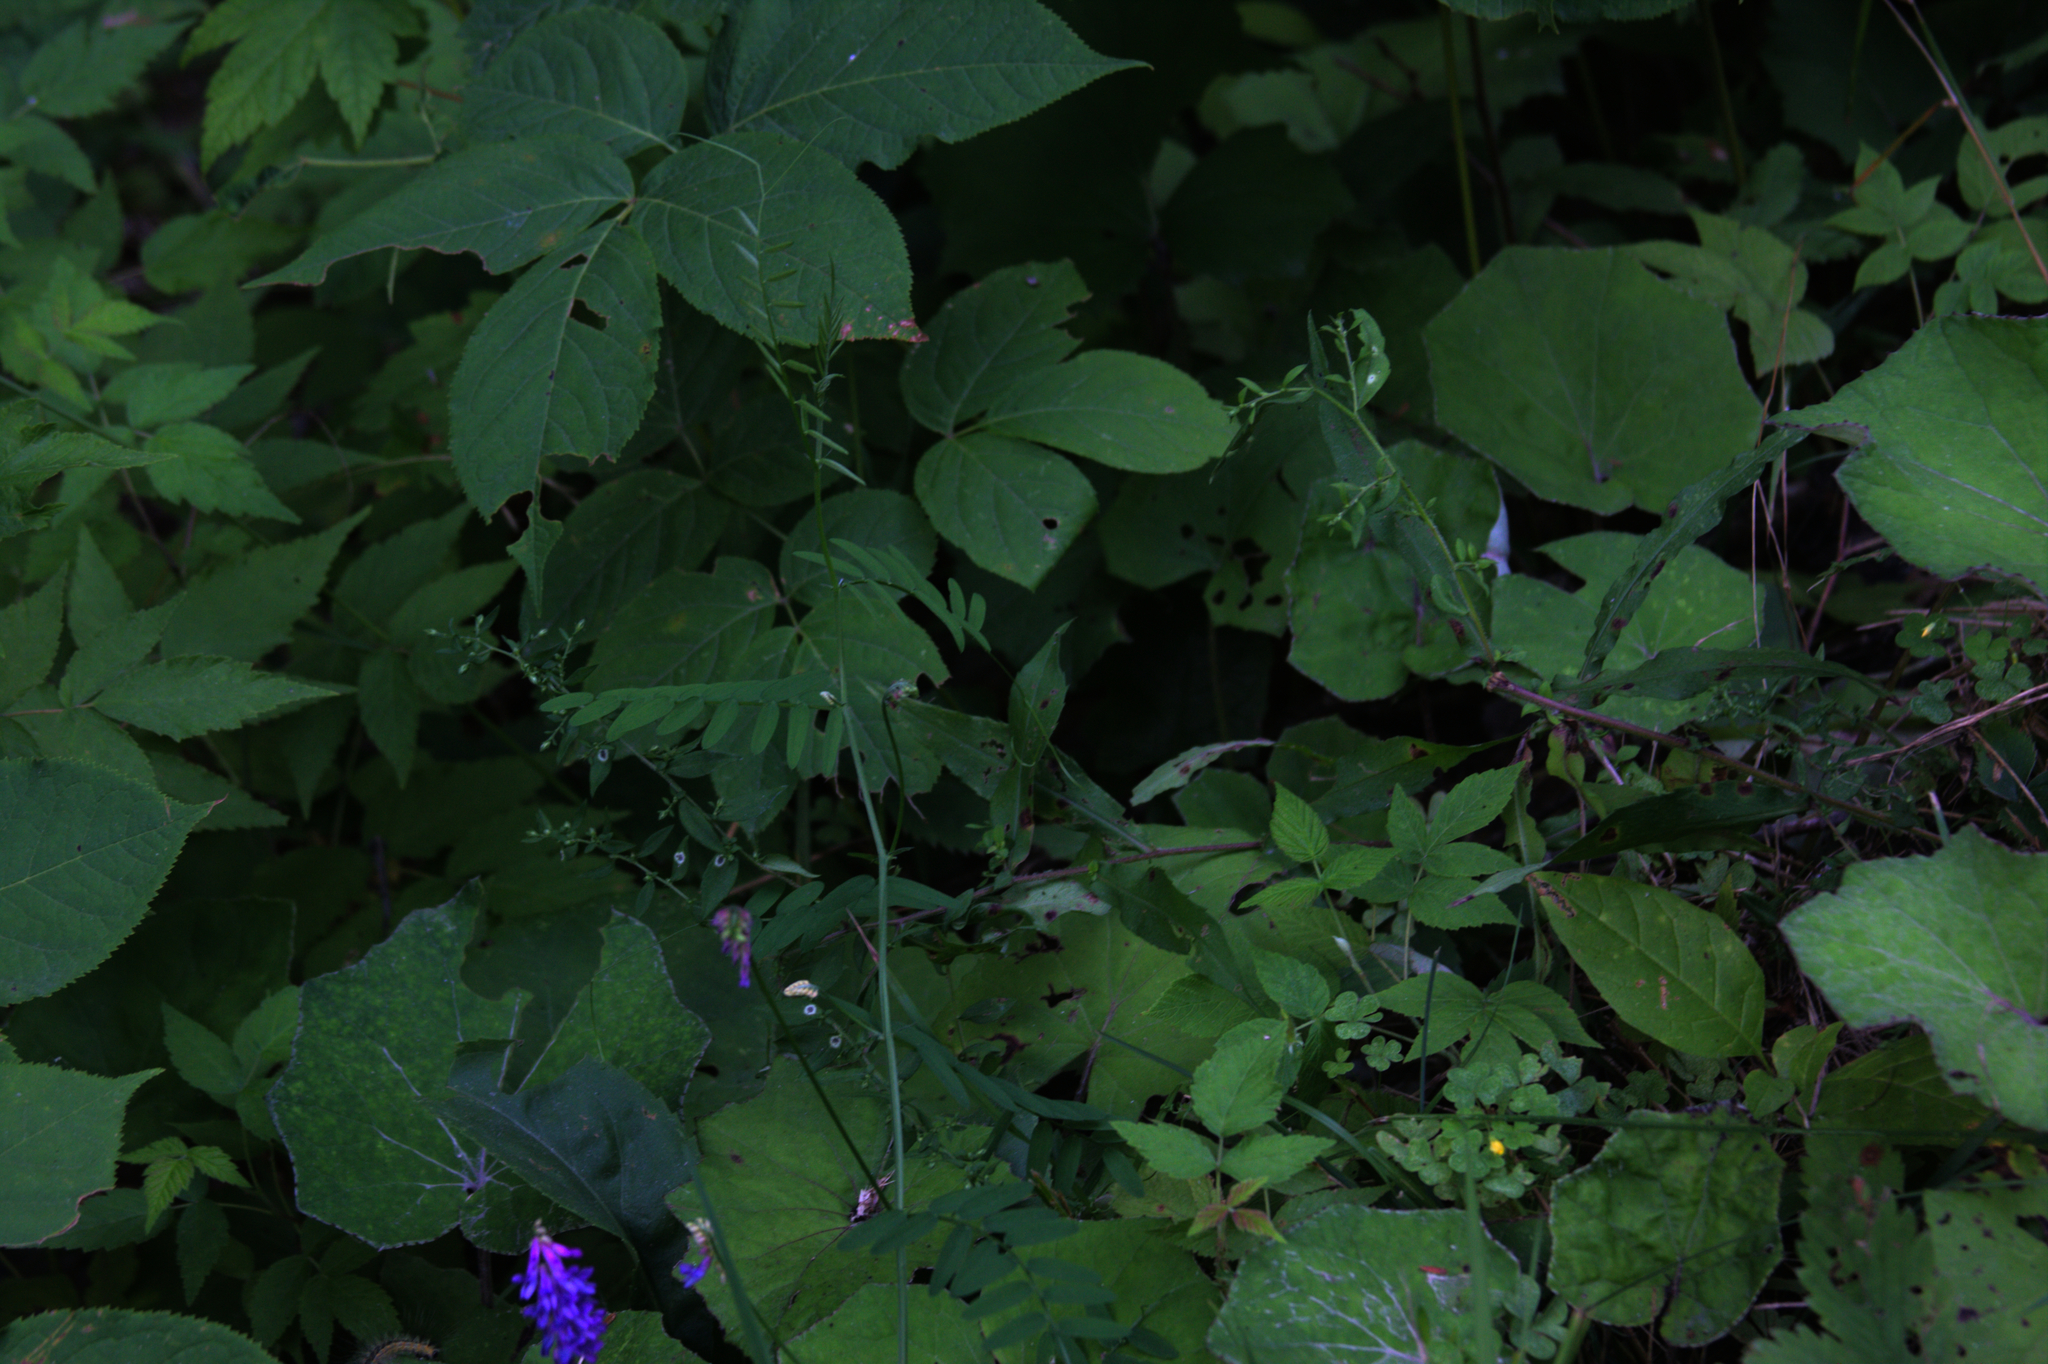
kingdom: Plantae
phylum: Tracheophyta
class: Magnoliopsida
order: Fabales
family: Fabaceae
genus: Vicia
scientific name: Vicia cracca
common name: Bird vetch
